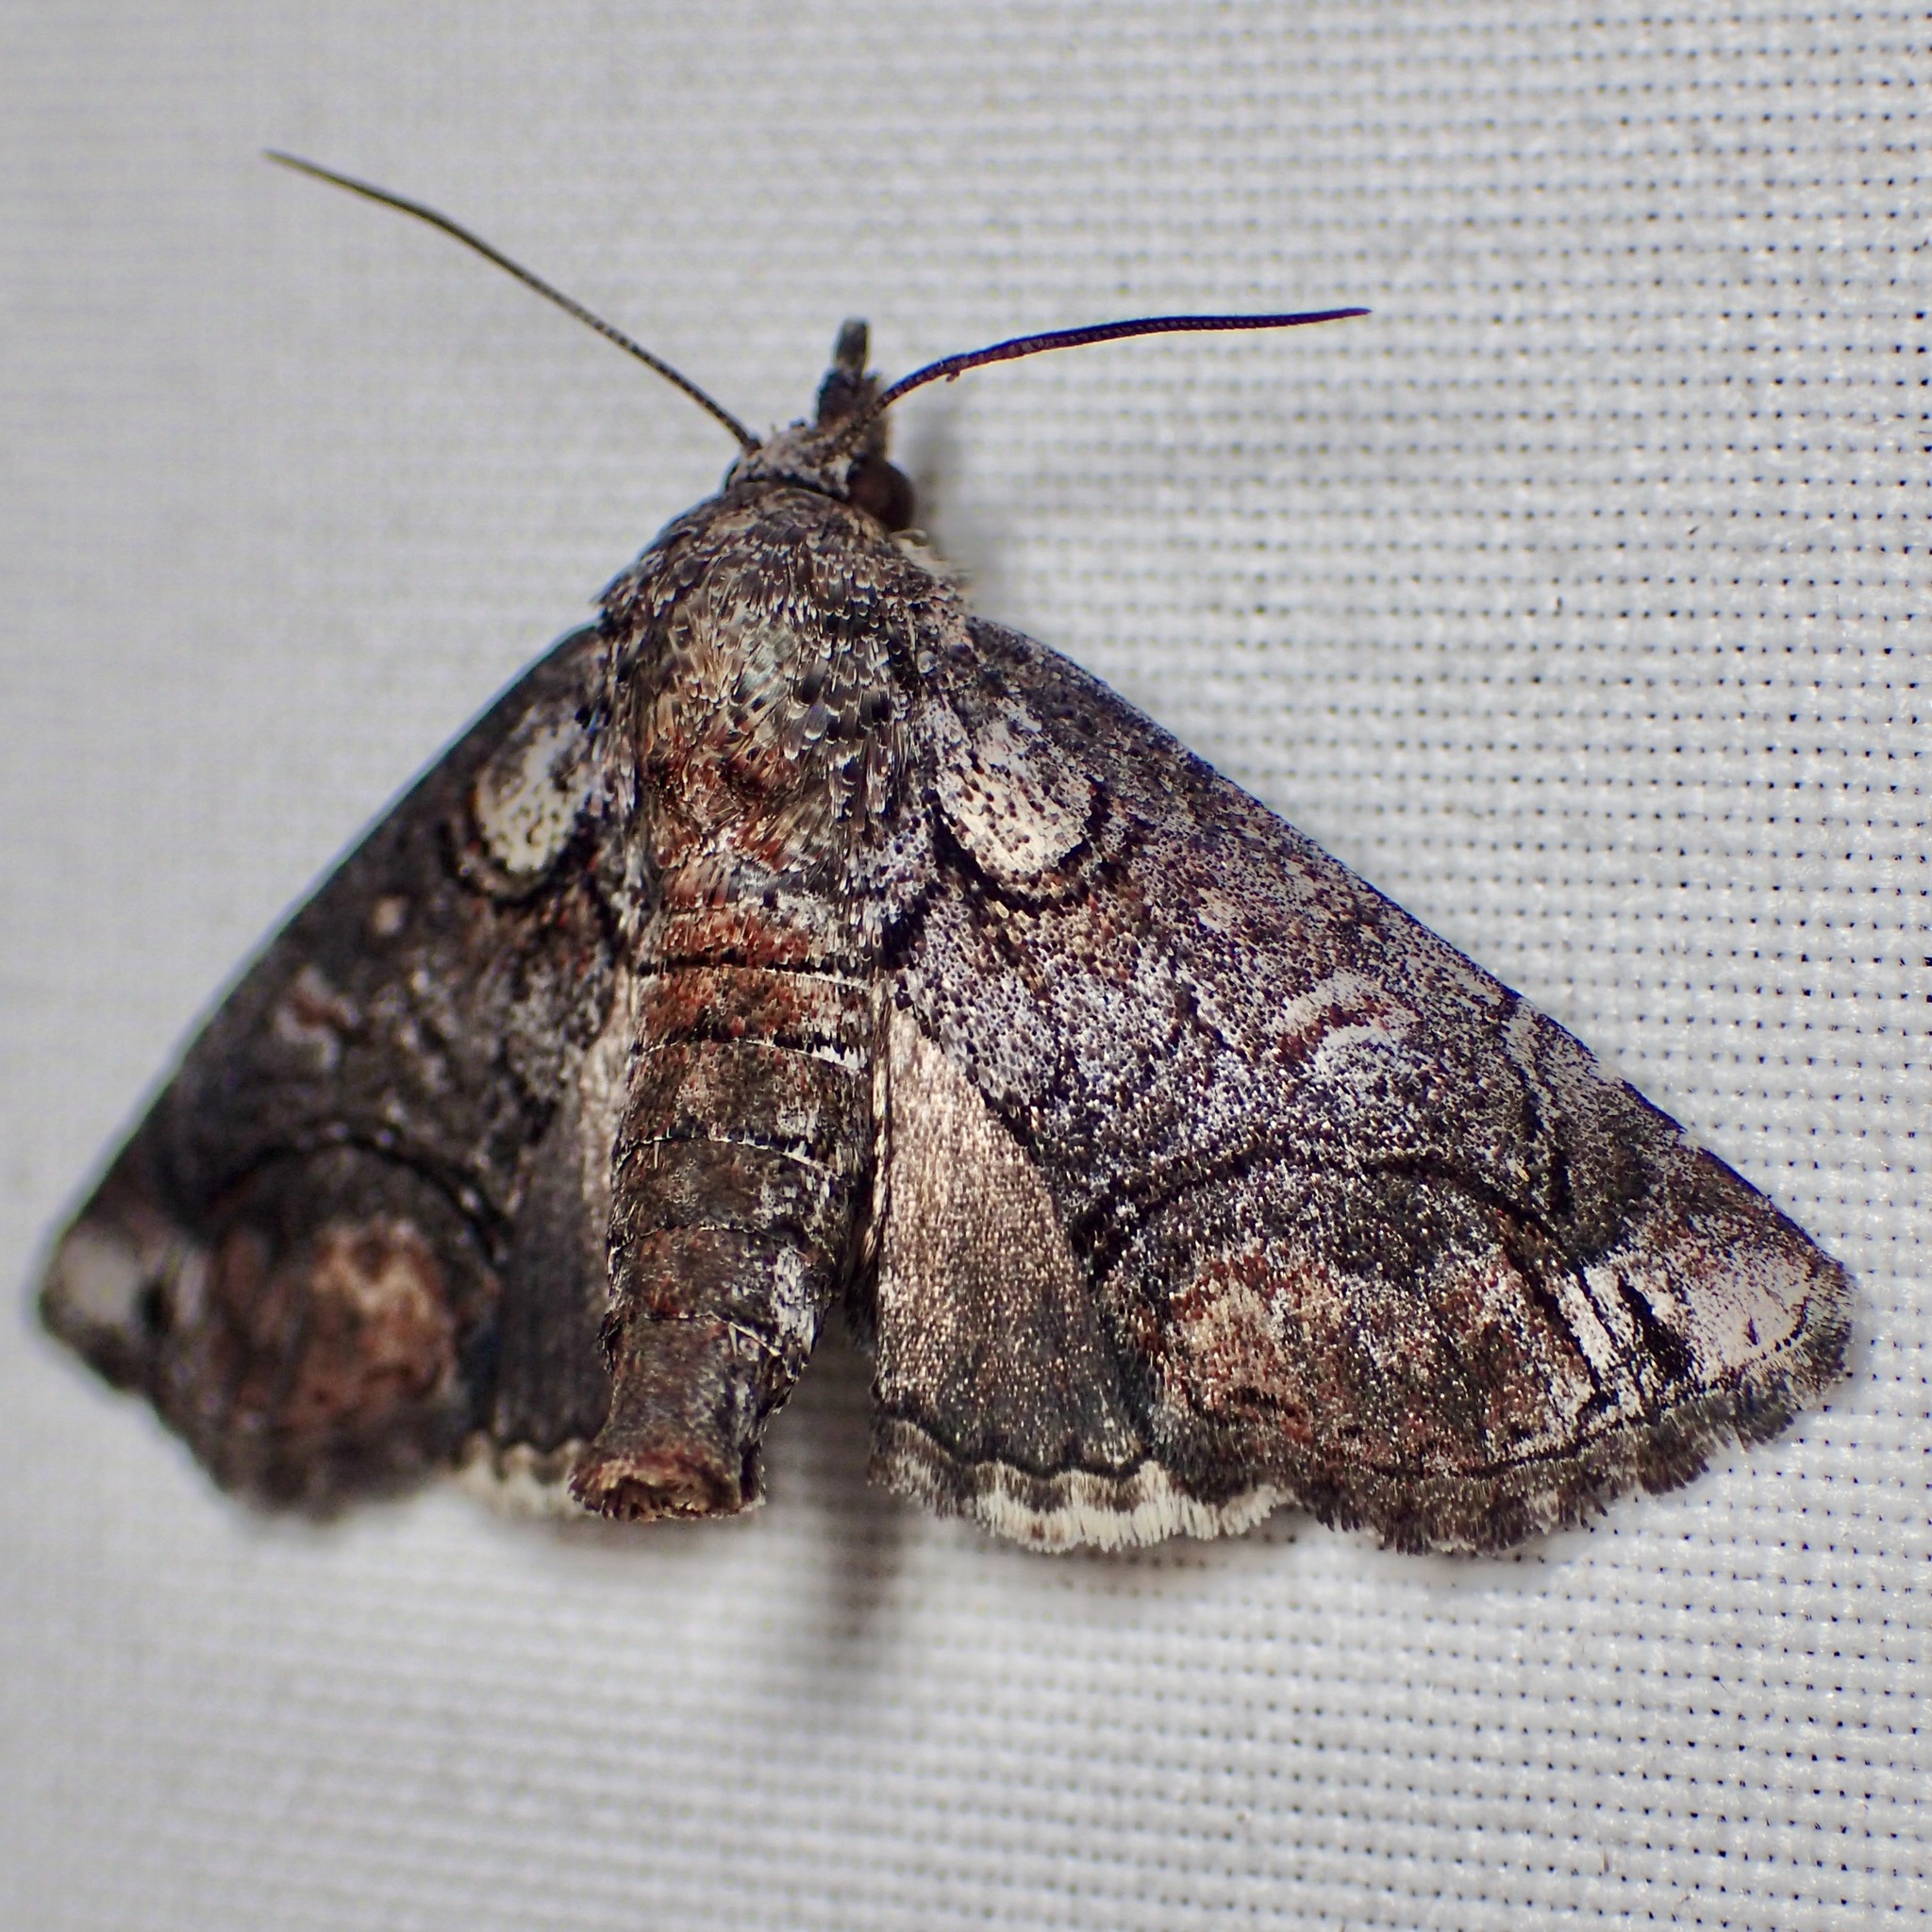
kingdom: Animalia
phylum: Arthropoda
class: Insecta
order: Lepidoptera
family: Euteliidae
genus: Paectes
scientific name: Paectes abrostoloides
